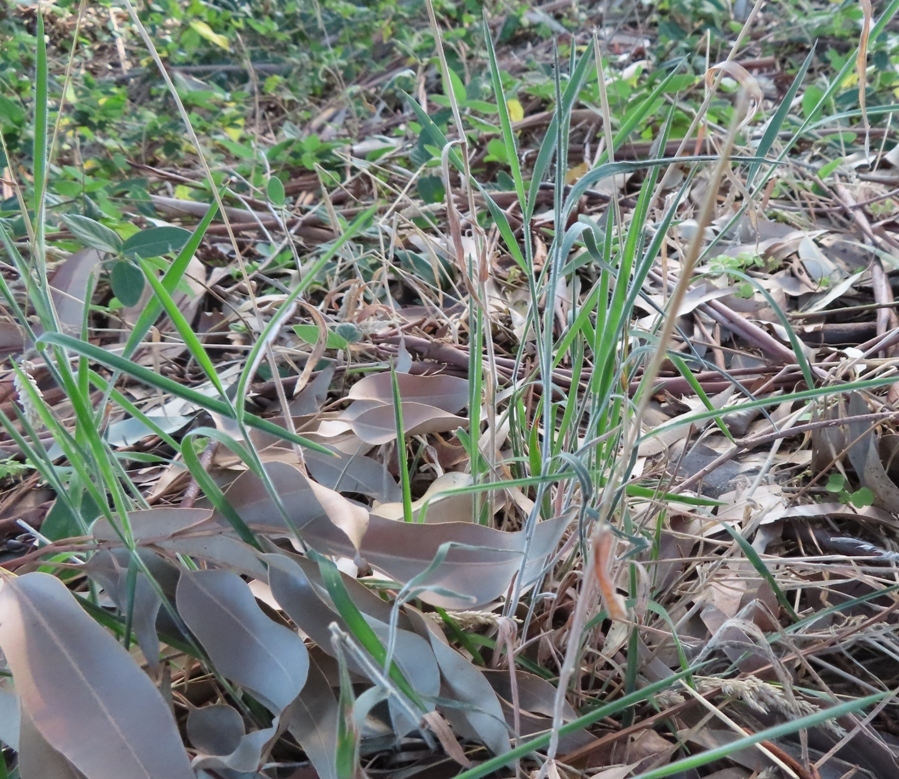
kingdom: Plantae
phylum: Tracheophyta
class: Liliopsida
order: Poales
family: Poaceae
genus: Holcus
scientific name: Holcus lanatus
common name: Yorkshire-fog
